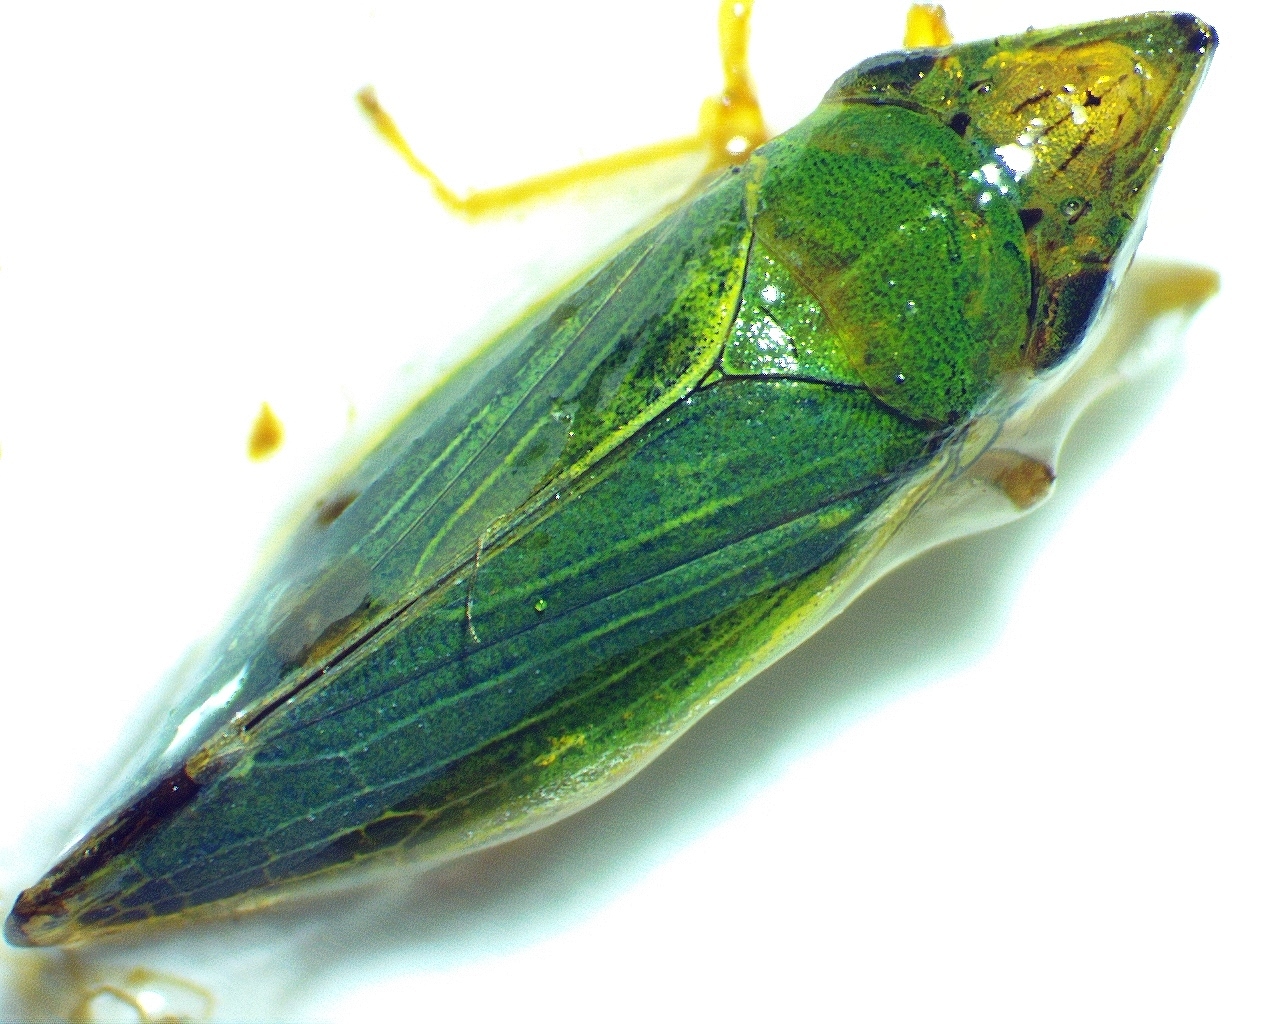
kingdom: Animalia
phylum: Arthropoda
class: Insecta
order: Hemiptera
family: Cicadellidae
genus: Draeculacephala
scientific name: Draeculacephala balli
